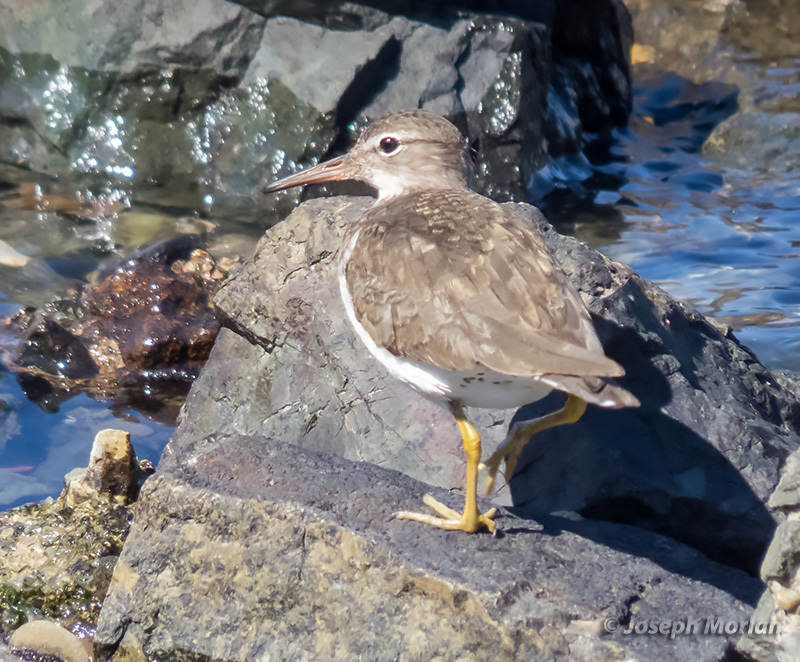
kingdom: Animalia
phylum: Chordata
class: Aves
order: Charadriiformes
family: Scolopacidae
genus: Actitis
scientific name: Actitis macularius
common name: Spotted sandpiper
